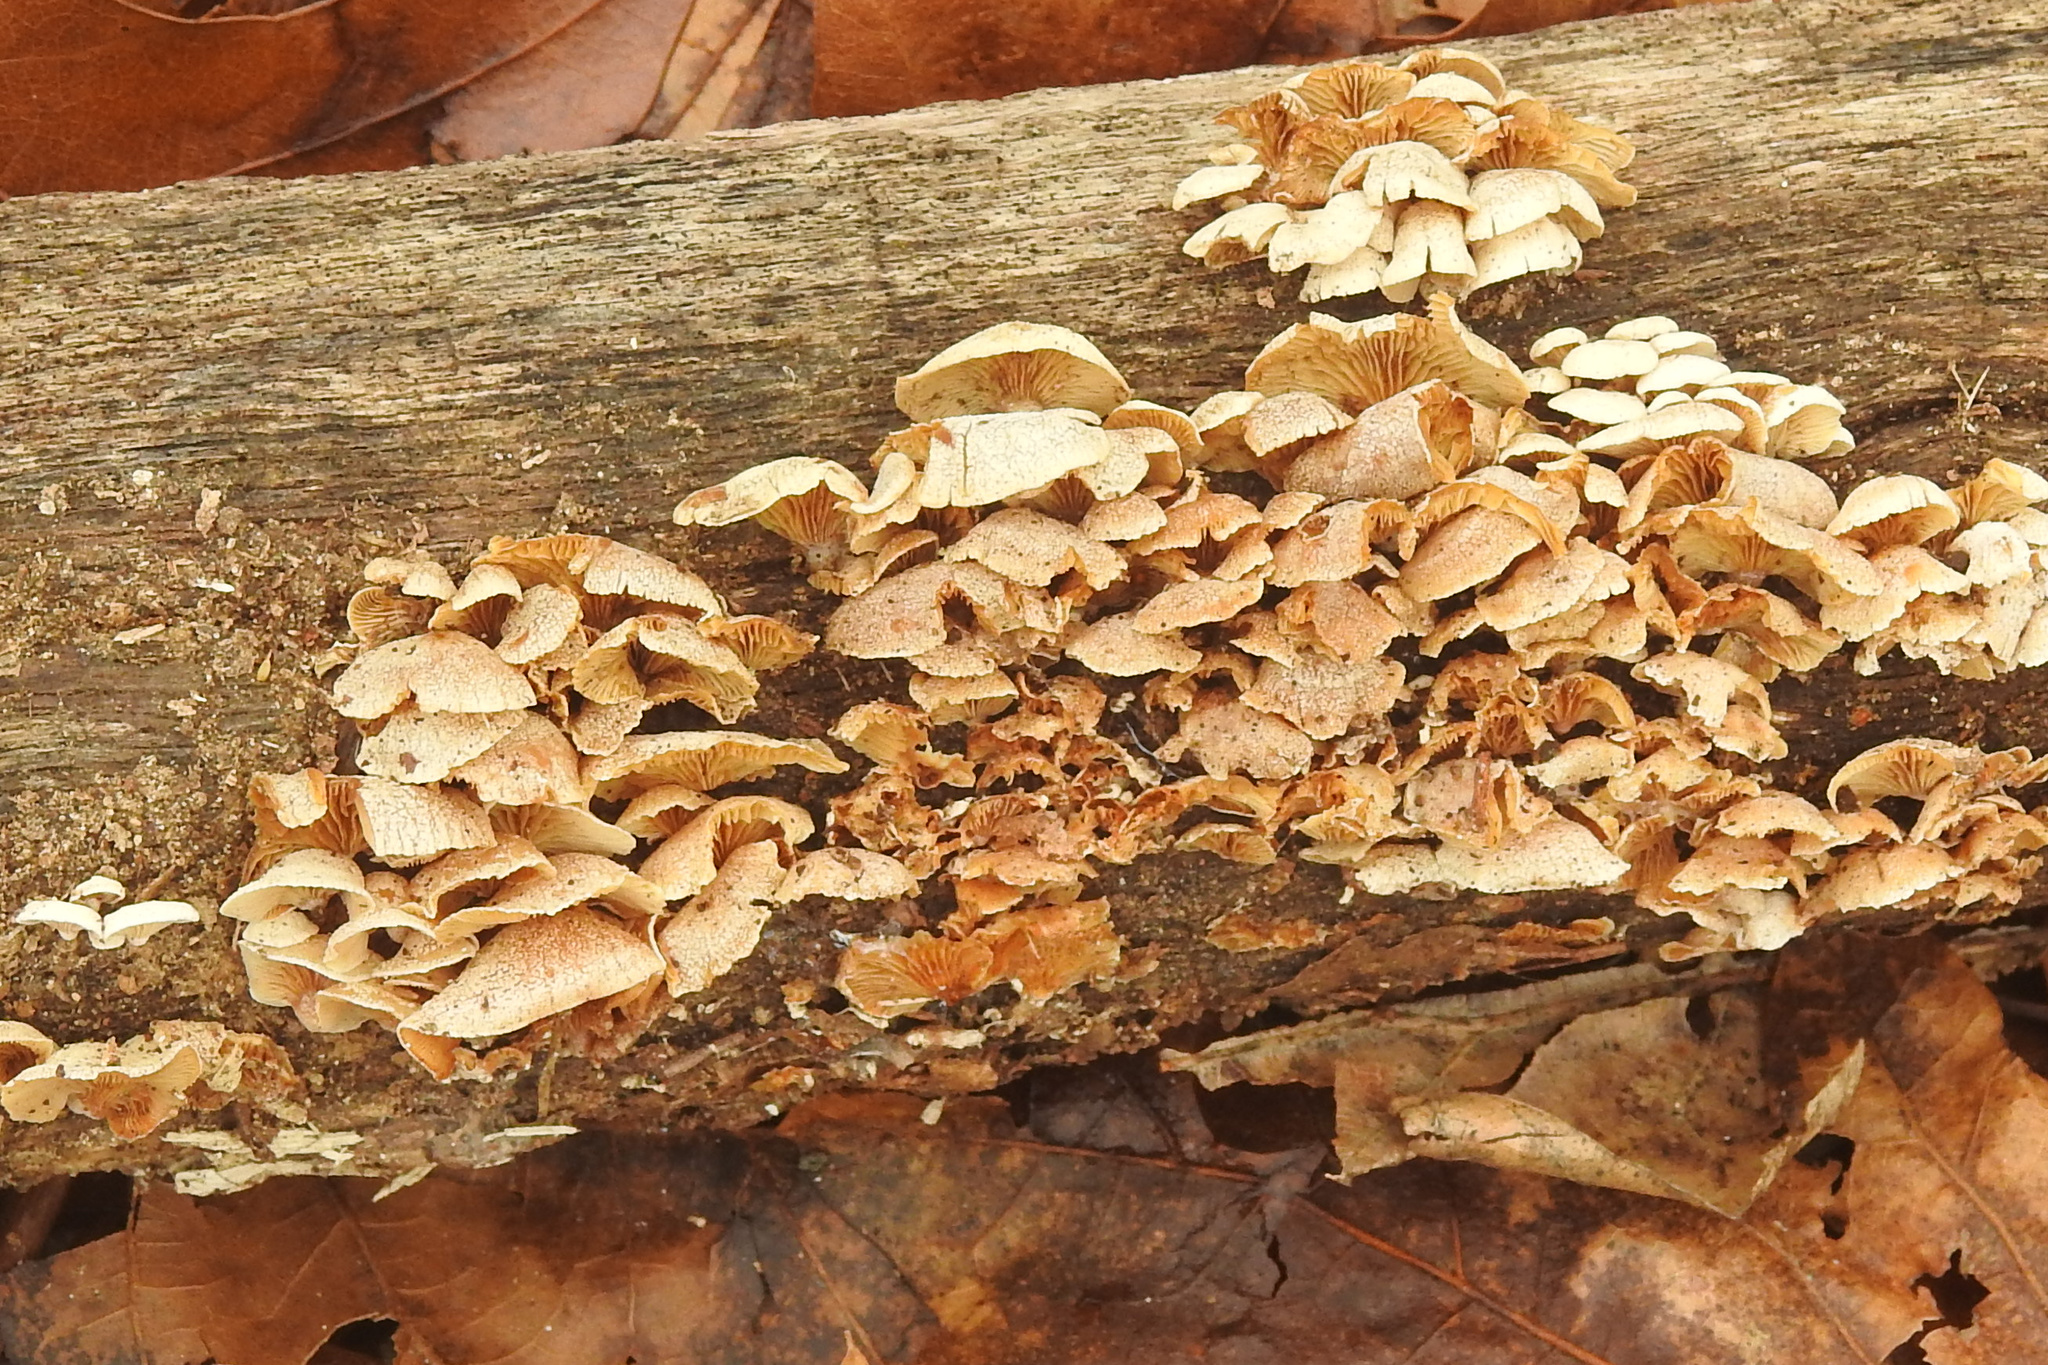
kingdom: Fungi
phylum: Basidiomycota
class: Agaricomycetes
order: Agaricales
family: Mycenaceae
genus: Panellus
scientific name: Panellus stipticus
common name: Bitter oysterling
